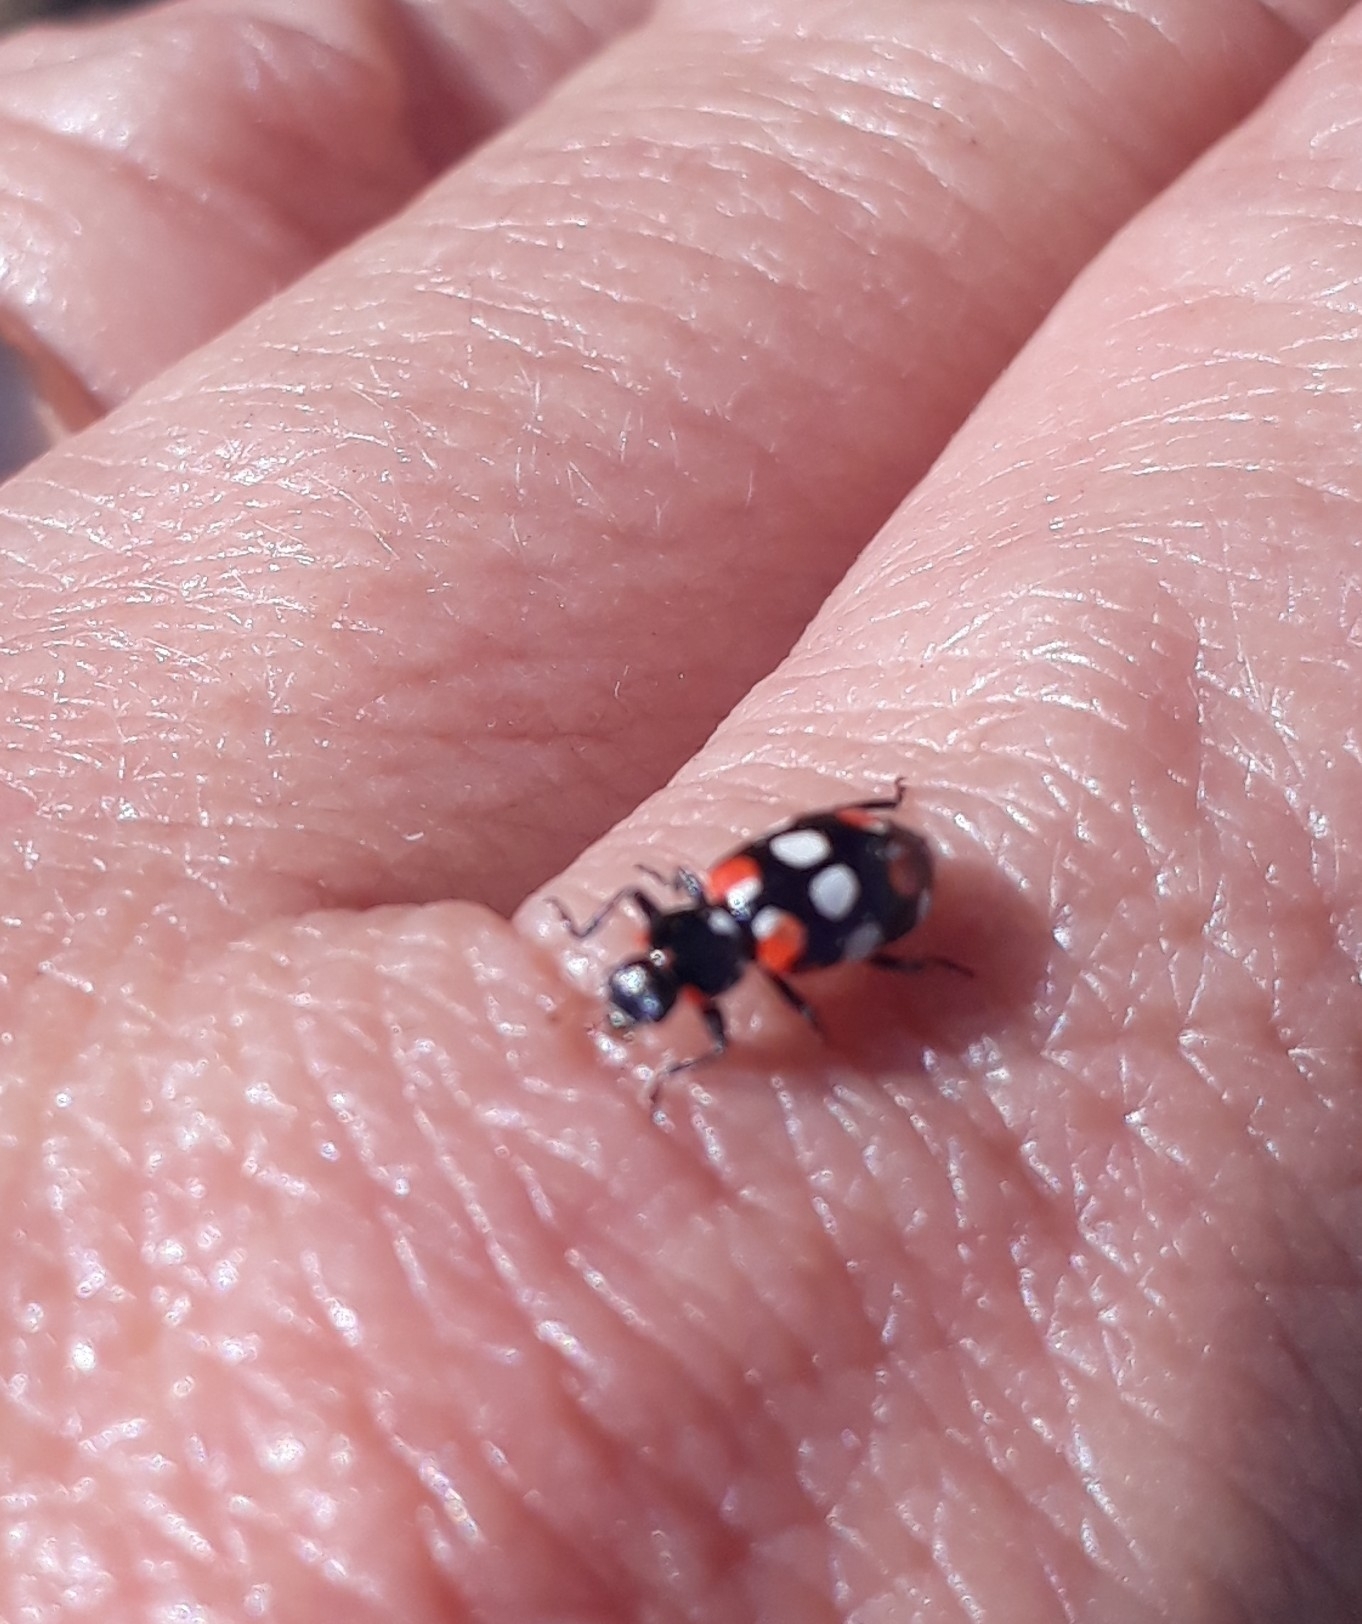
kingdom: Animalia
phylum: Arthropoda
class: Insecta
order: Coleoptera
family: Coccinellidae
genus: Eriopis
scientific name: Eriopis connexa
